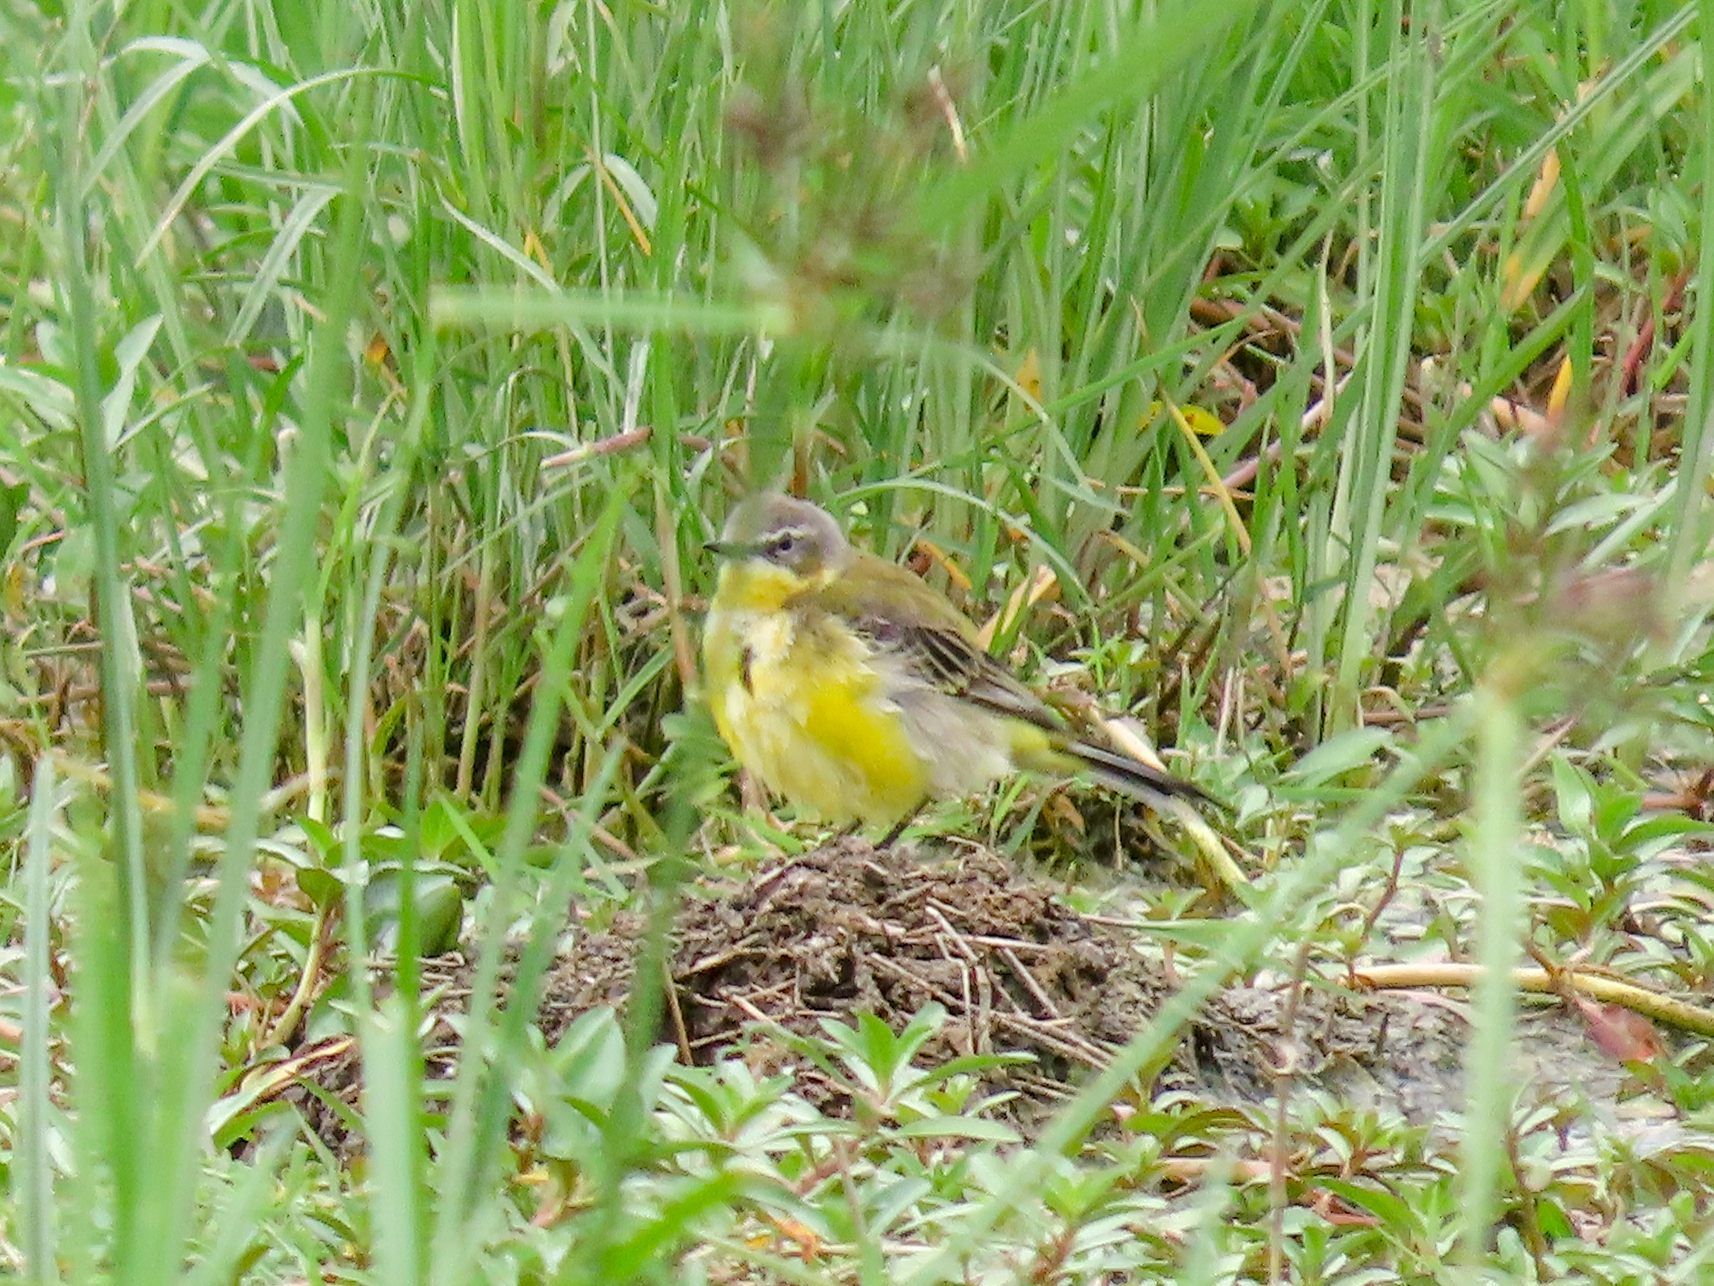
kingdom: Animalia
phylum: Chordata
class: Aves
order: Passeriformes
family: Motacillidae
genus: Motacilla
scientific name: Motacilla flava
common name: Western yellow wagtail
